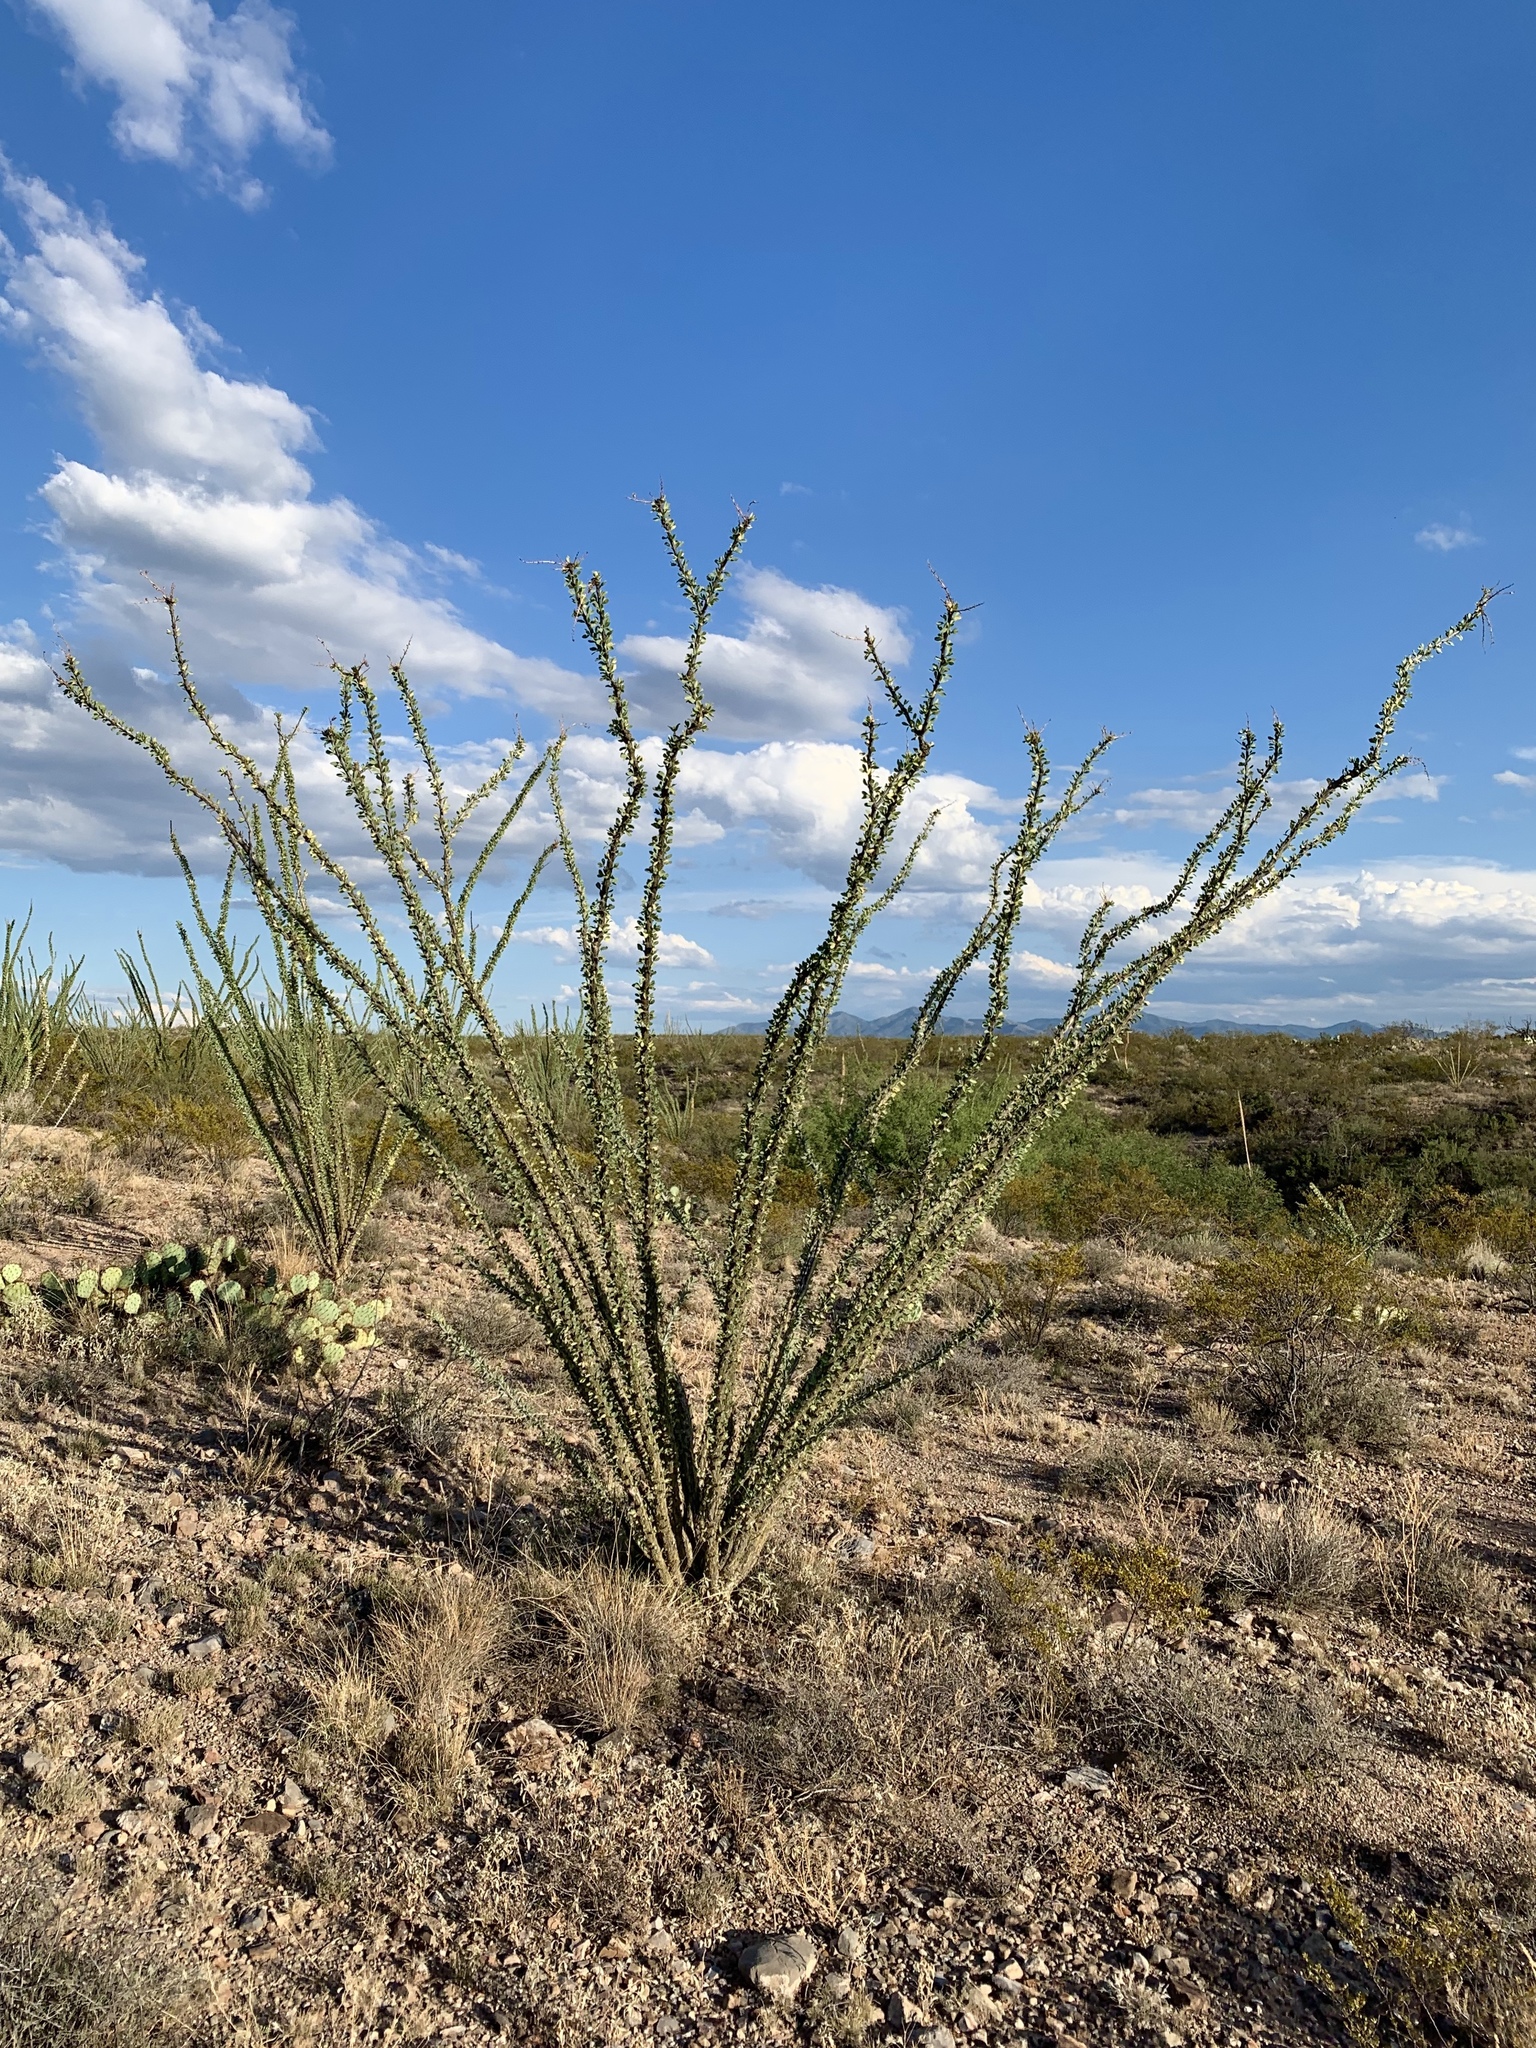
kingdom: Plantae
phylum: Tracheophyta
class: Magnoliopsida
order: Ericales
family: Fouquieriaceae
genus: Fouquieria
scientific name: Fouquieria splendens
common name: Vine-cactus
